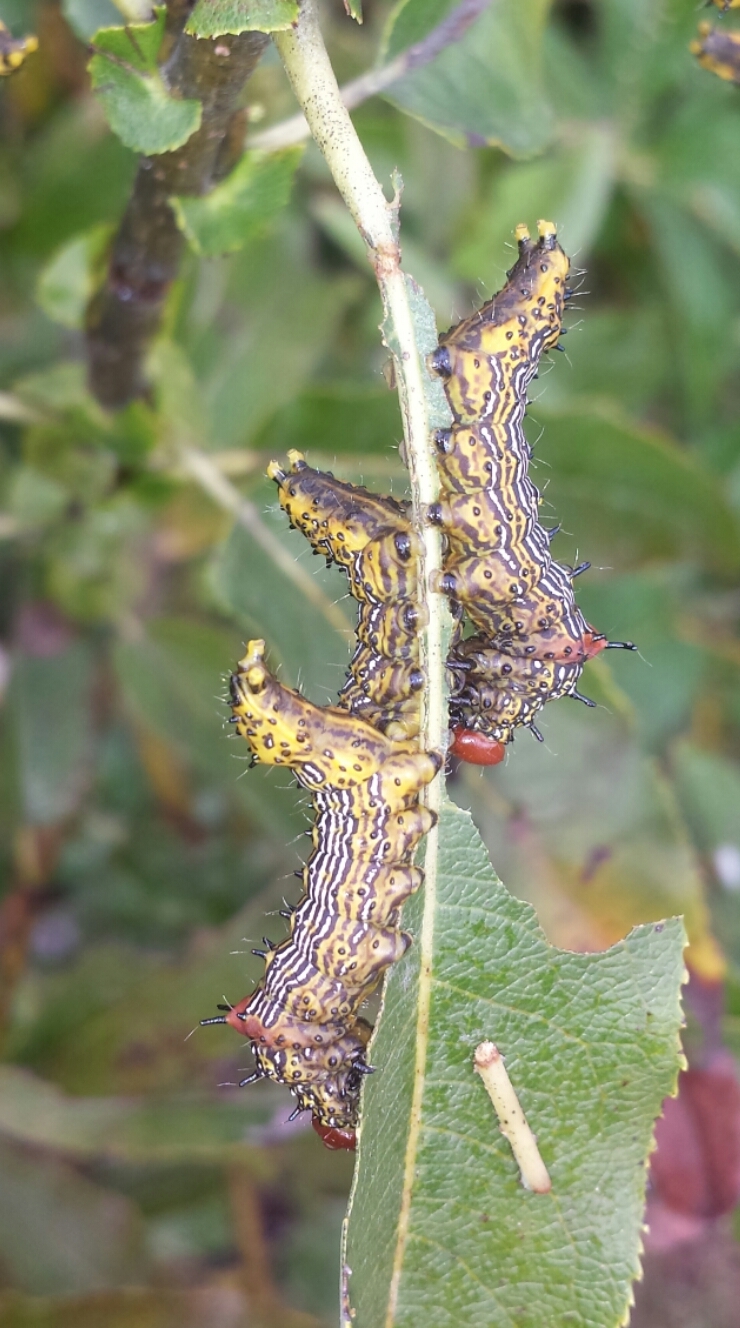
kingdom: Animalia
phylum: Arthropoda
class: Insecta
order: Lepidoptera
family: Notodontidae
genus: Schizura
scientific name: Schizura
